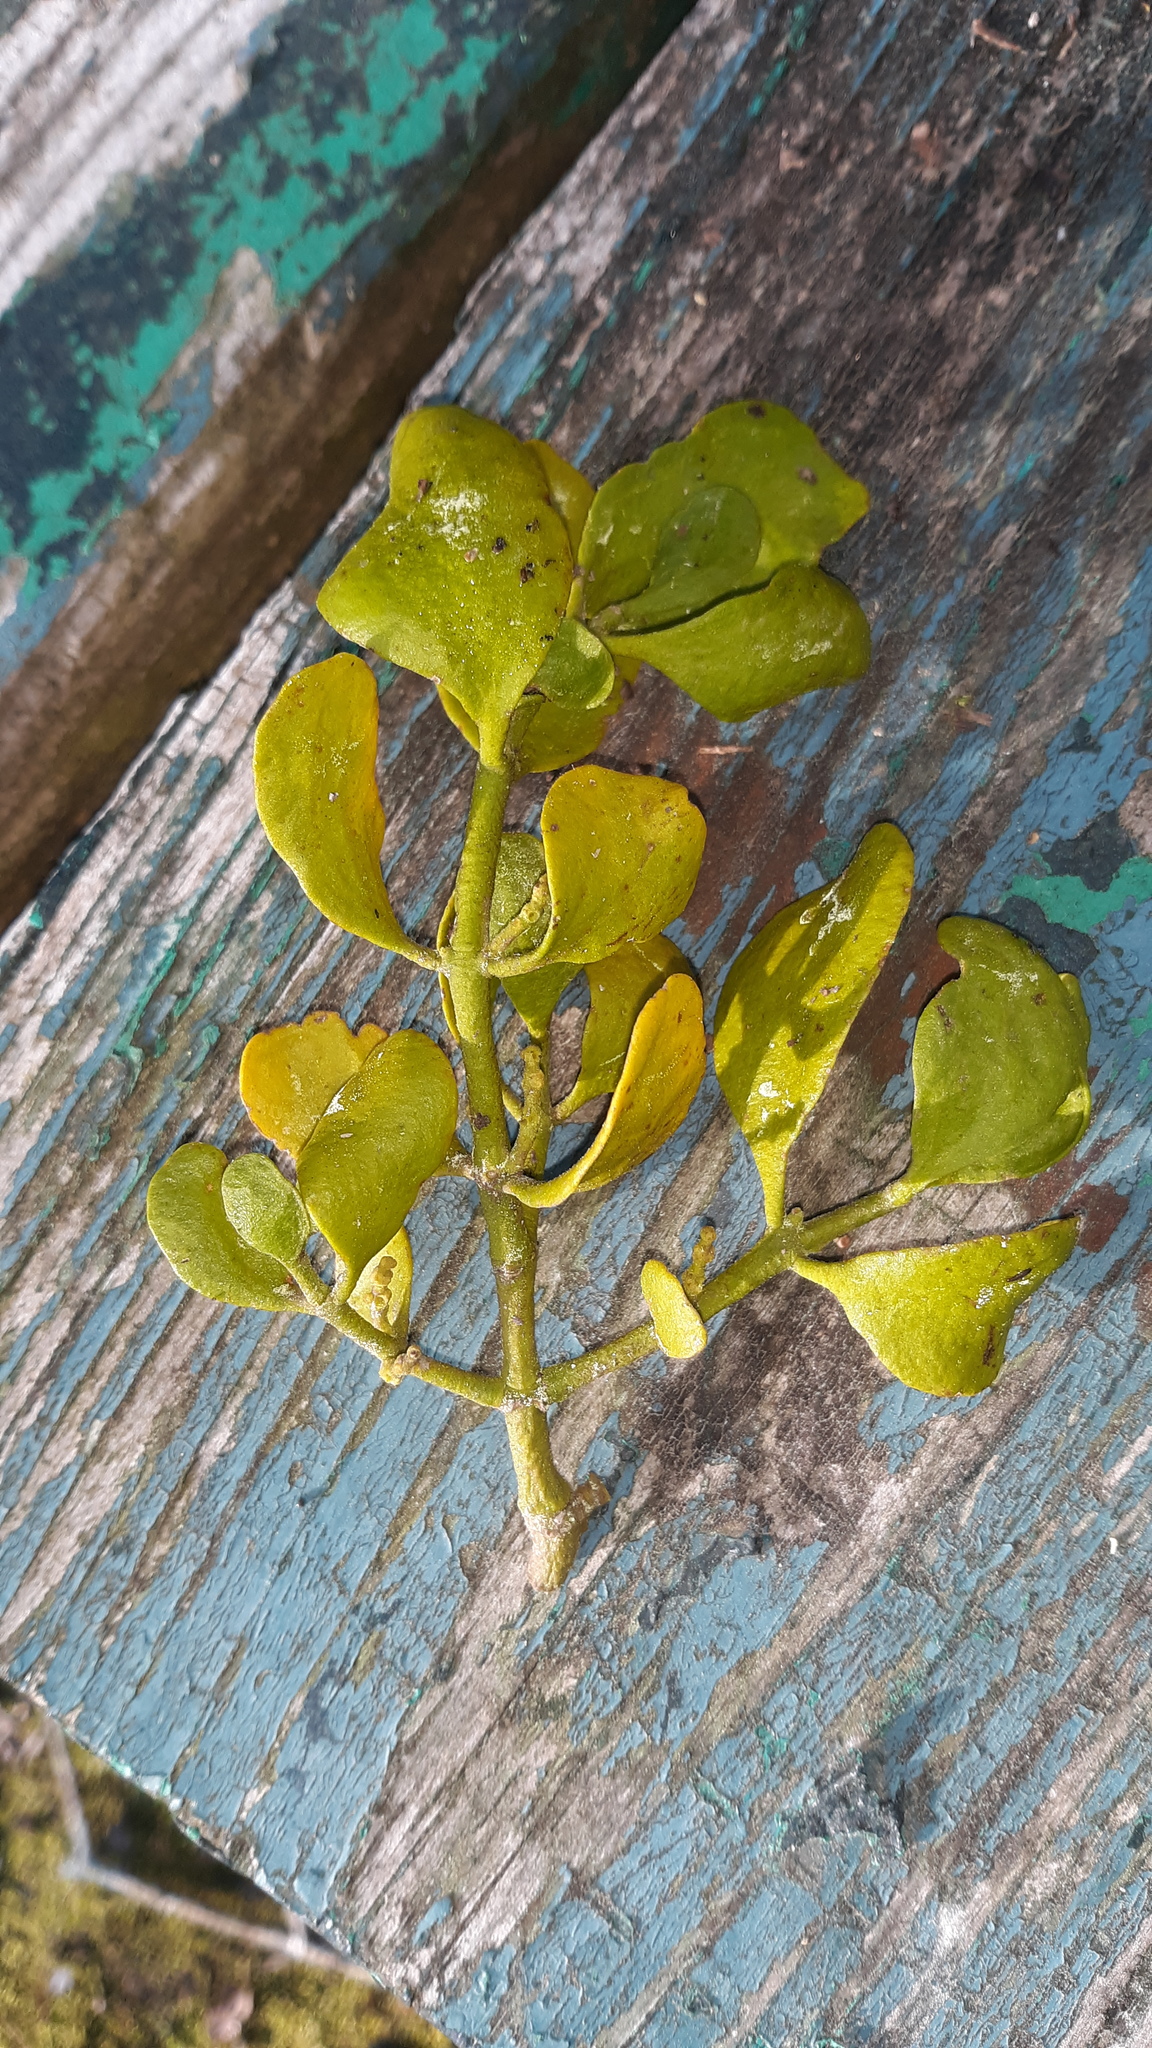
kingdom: Plantae
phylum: Tracheophyta
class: Magnoliopsida
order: Santalales
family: Viscaceae
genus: Phoradendron
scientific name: Phoradendron leucarpum
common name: Pacific mistletoe
